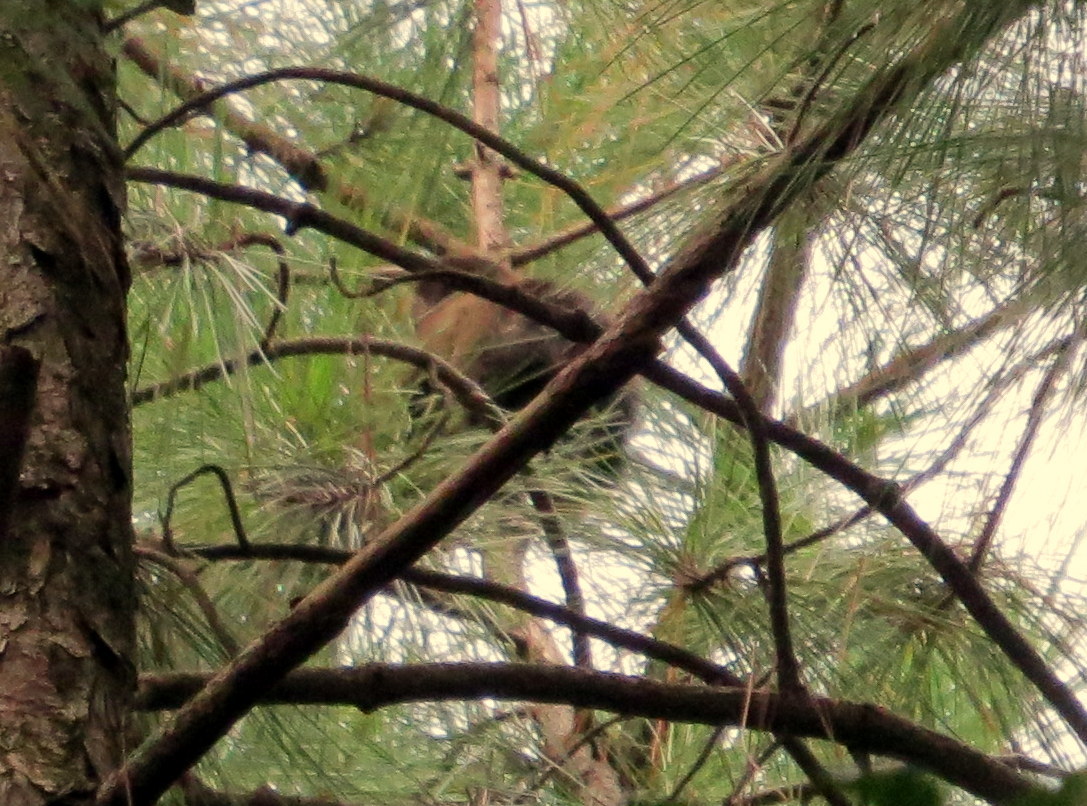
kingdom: Animalia
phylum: Chordata
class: Mammalia
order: Primates
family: Atelidae
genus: Alouatta
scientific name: Alouatta guariba
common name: Brown howler monkey
